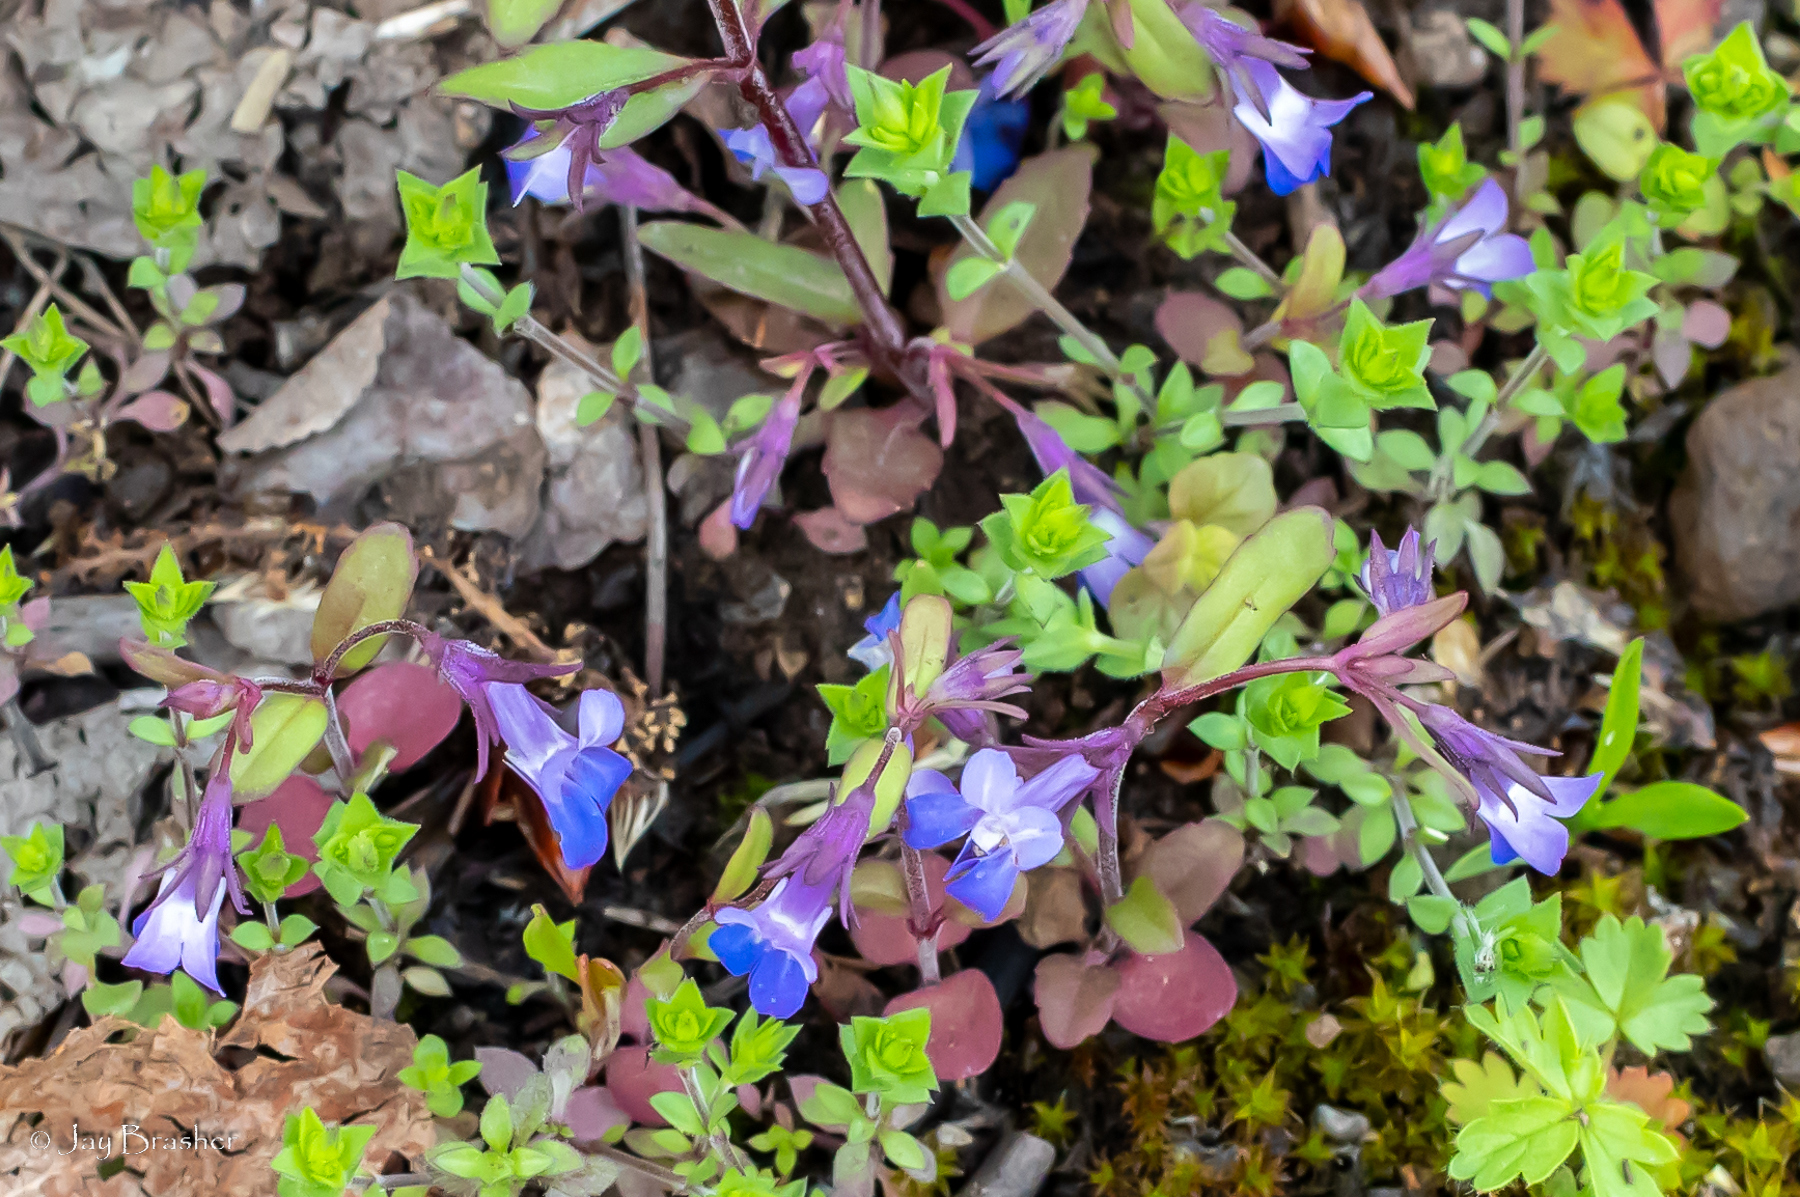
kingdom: Plantae
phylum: Tracheophyta
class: Magnoliopsida
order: Lamiales
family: Plantaginaceae
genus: Collinsia
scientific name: Collinsia parviflora
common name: Blue-lips
